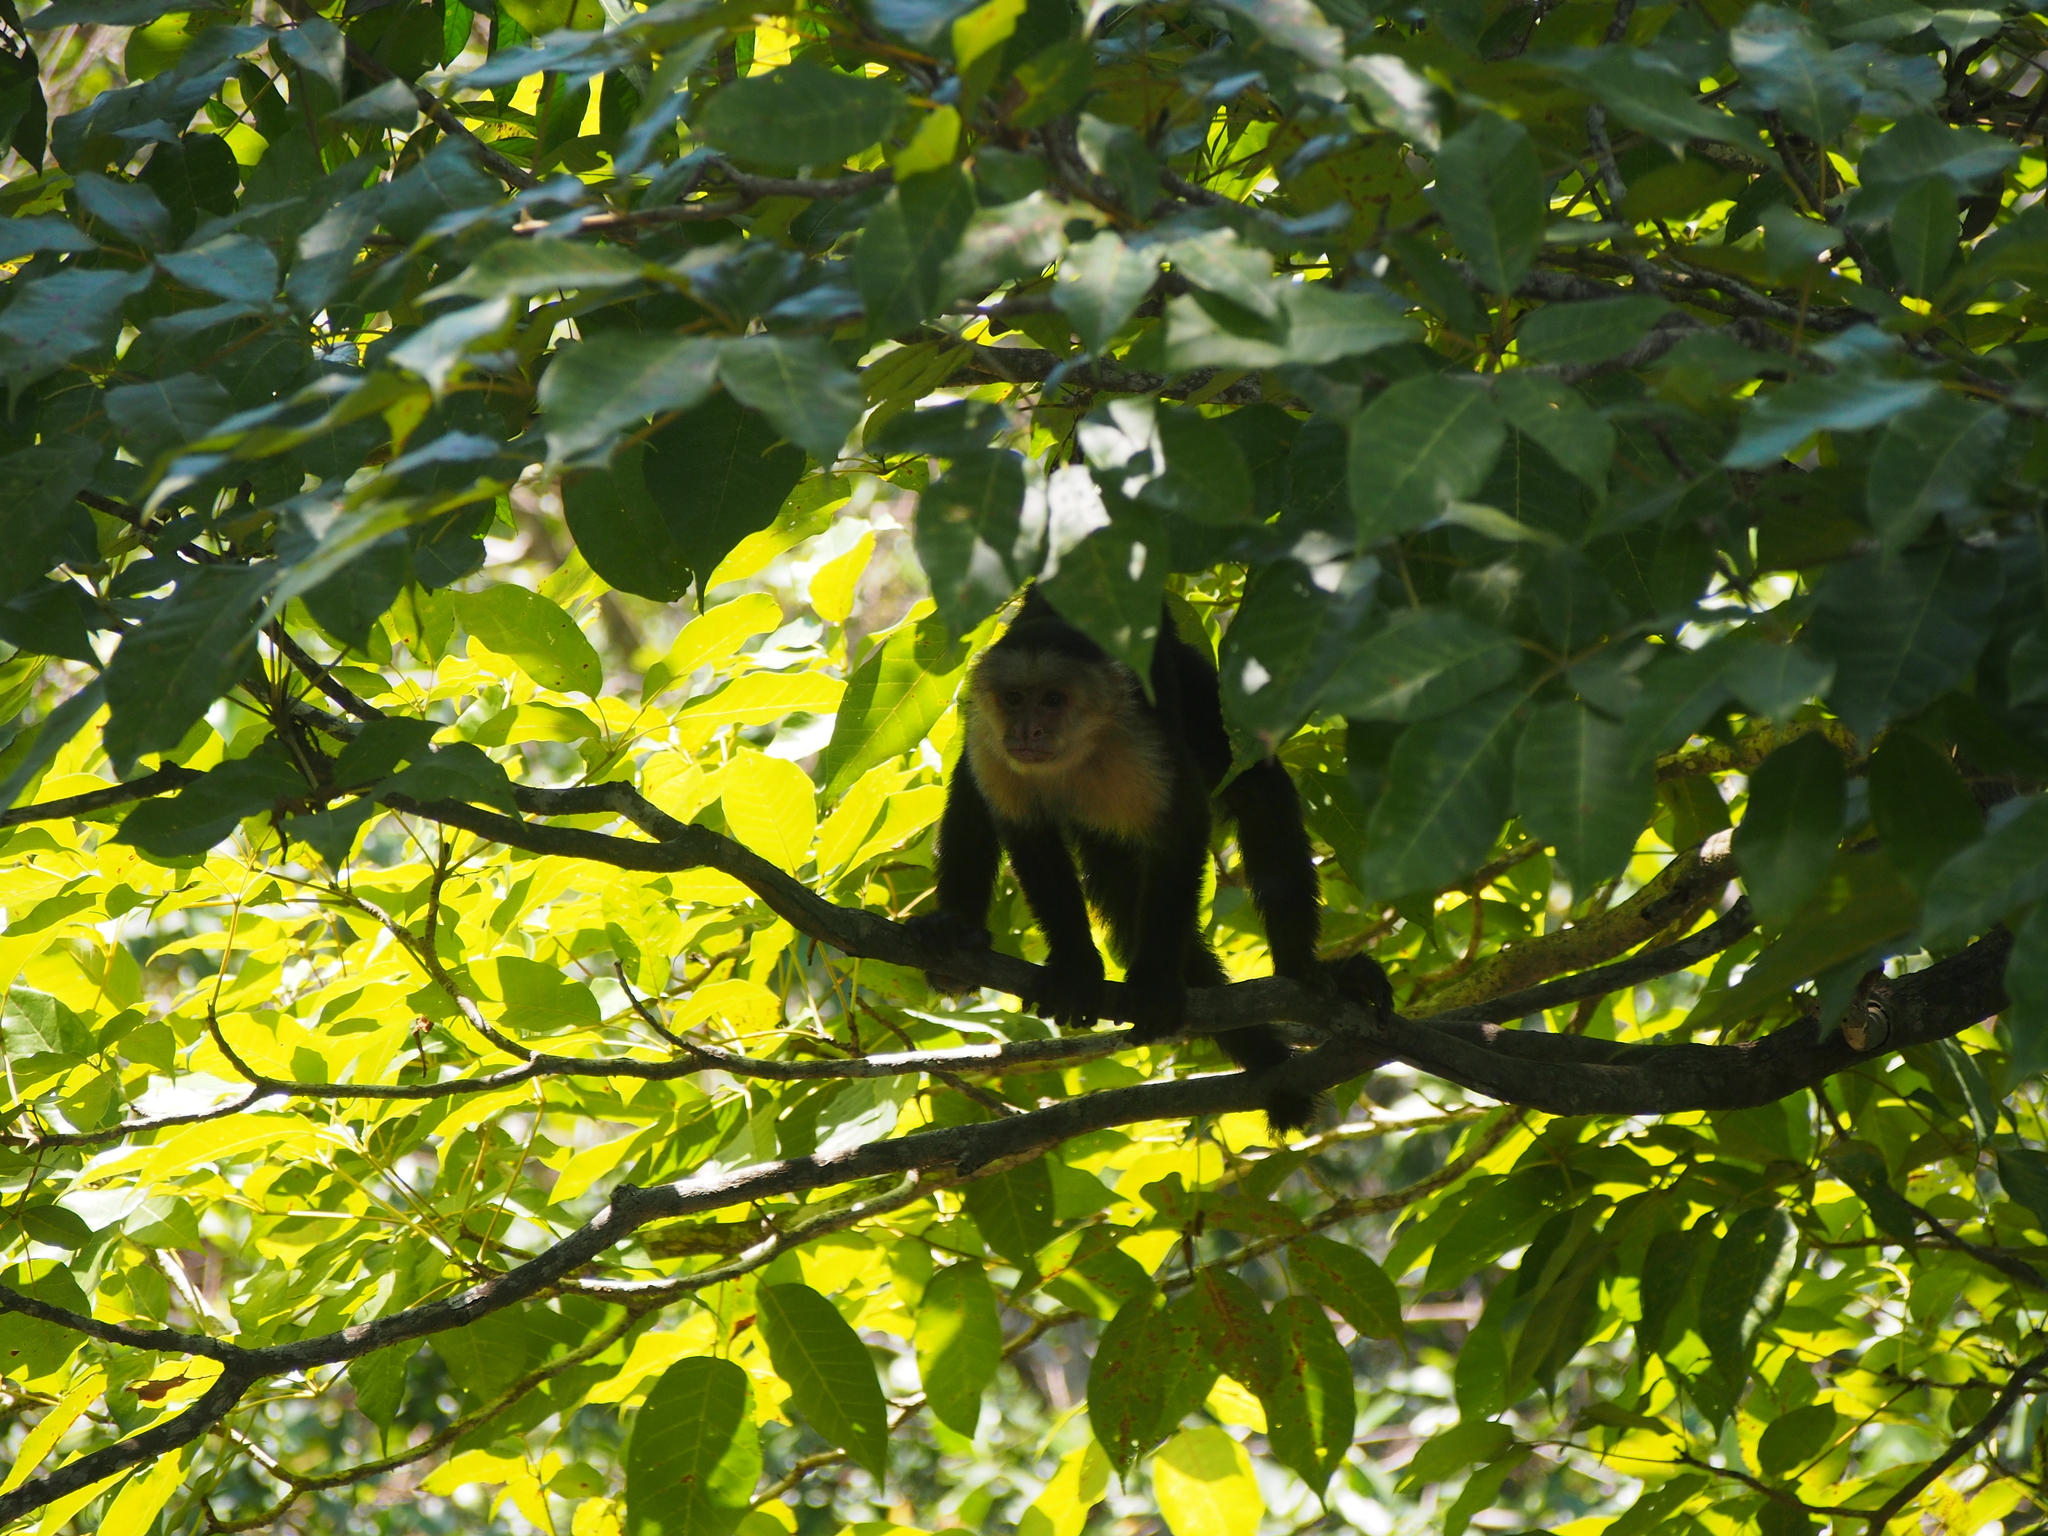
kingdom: Animalia
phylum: Chordata
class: Mammalia
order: Primates
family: Cebidae
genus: Cebus
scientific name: Cebus imitator
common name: Panamanian white-faced capuchin
